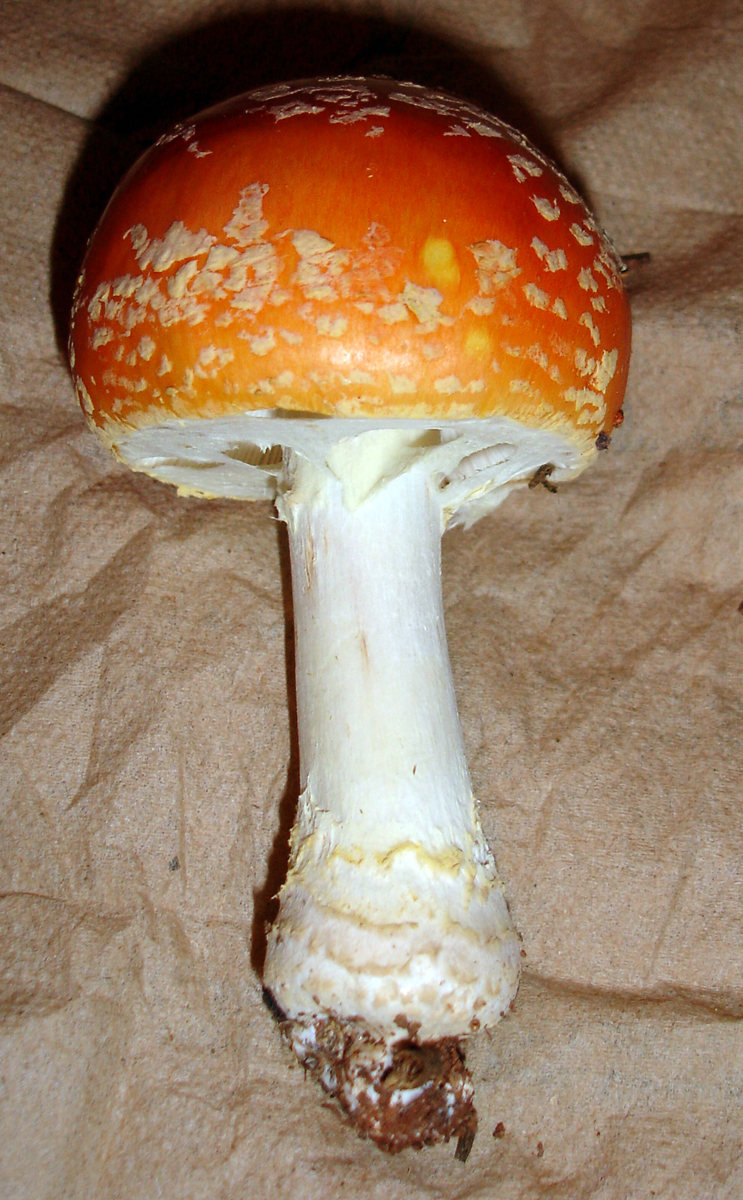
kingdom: Fungi
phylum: Basidiomycota
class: Agaricomycetes
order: Agaricales
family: Amanitaceae
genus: Amanita
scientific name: Amanita persicina
